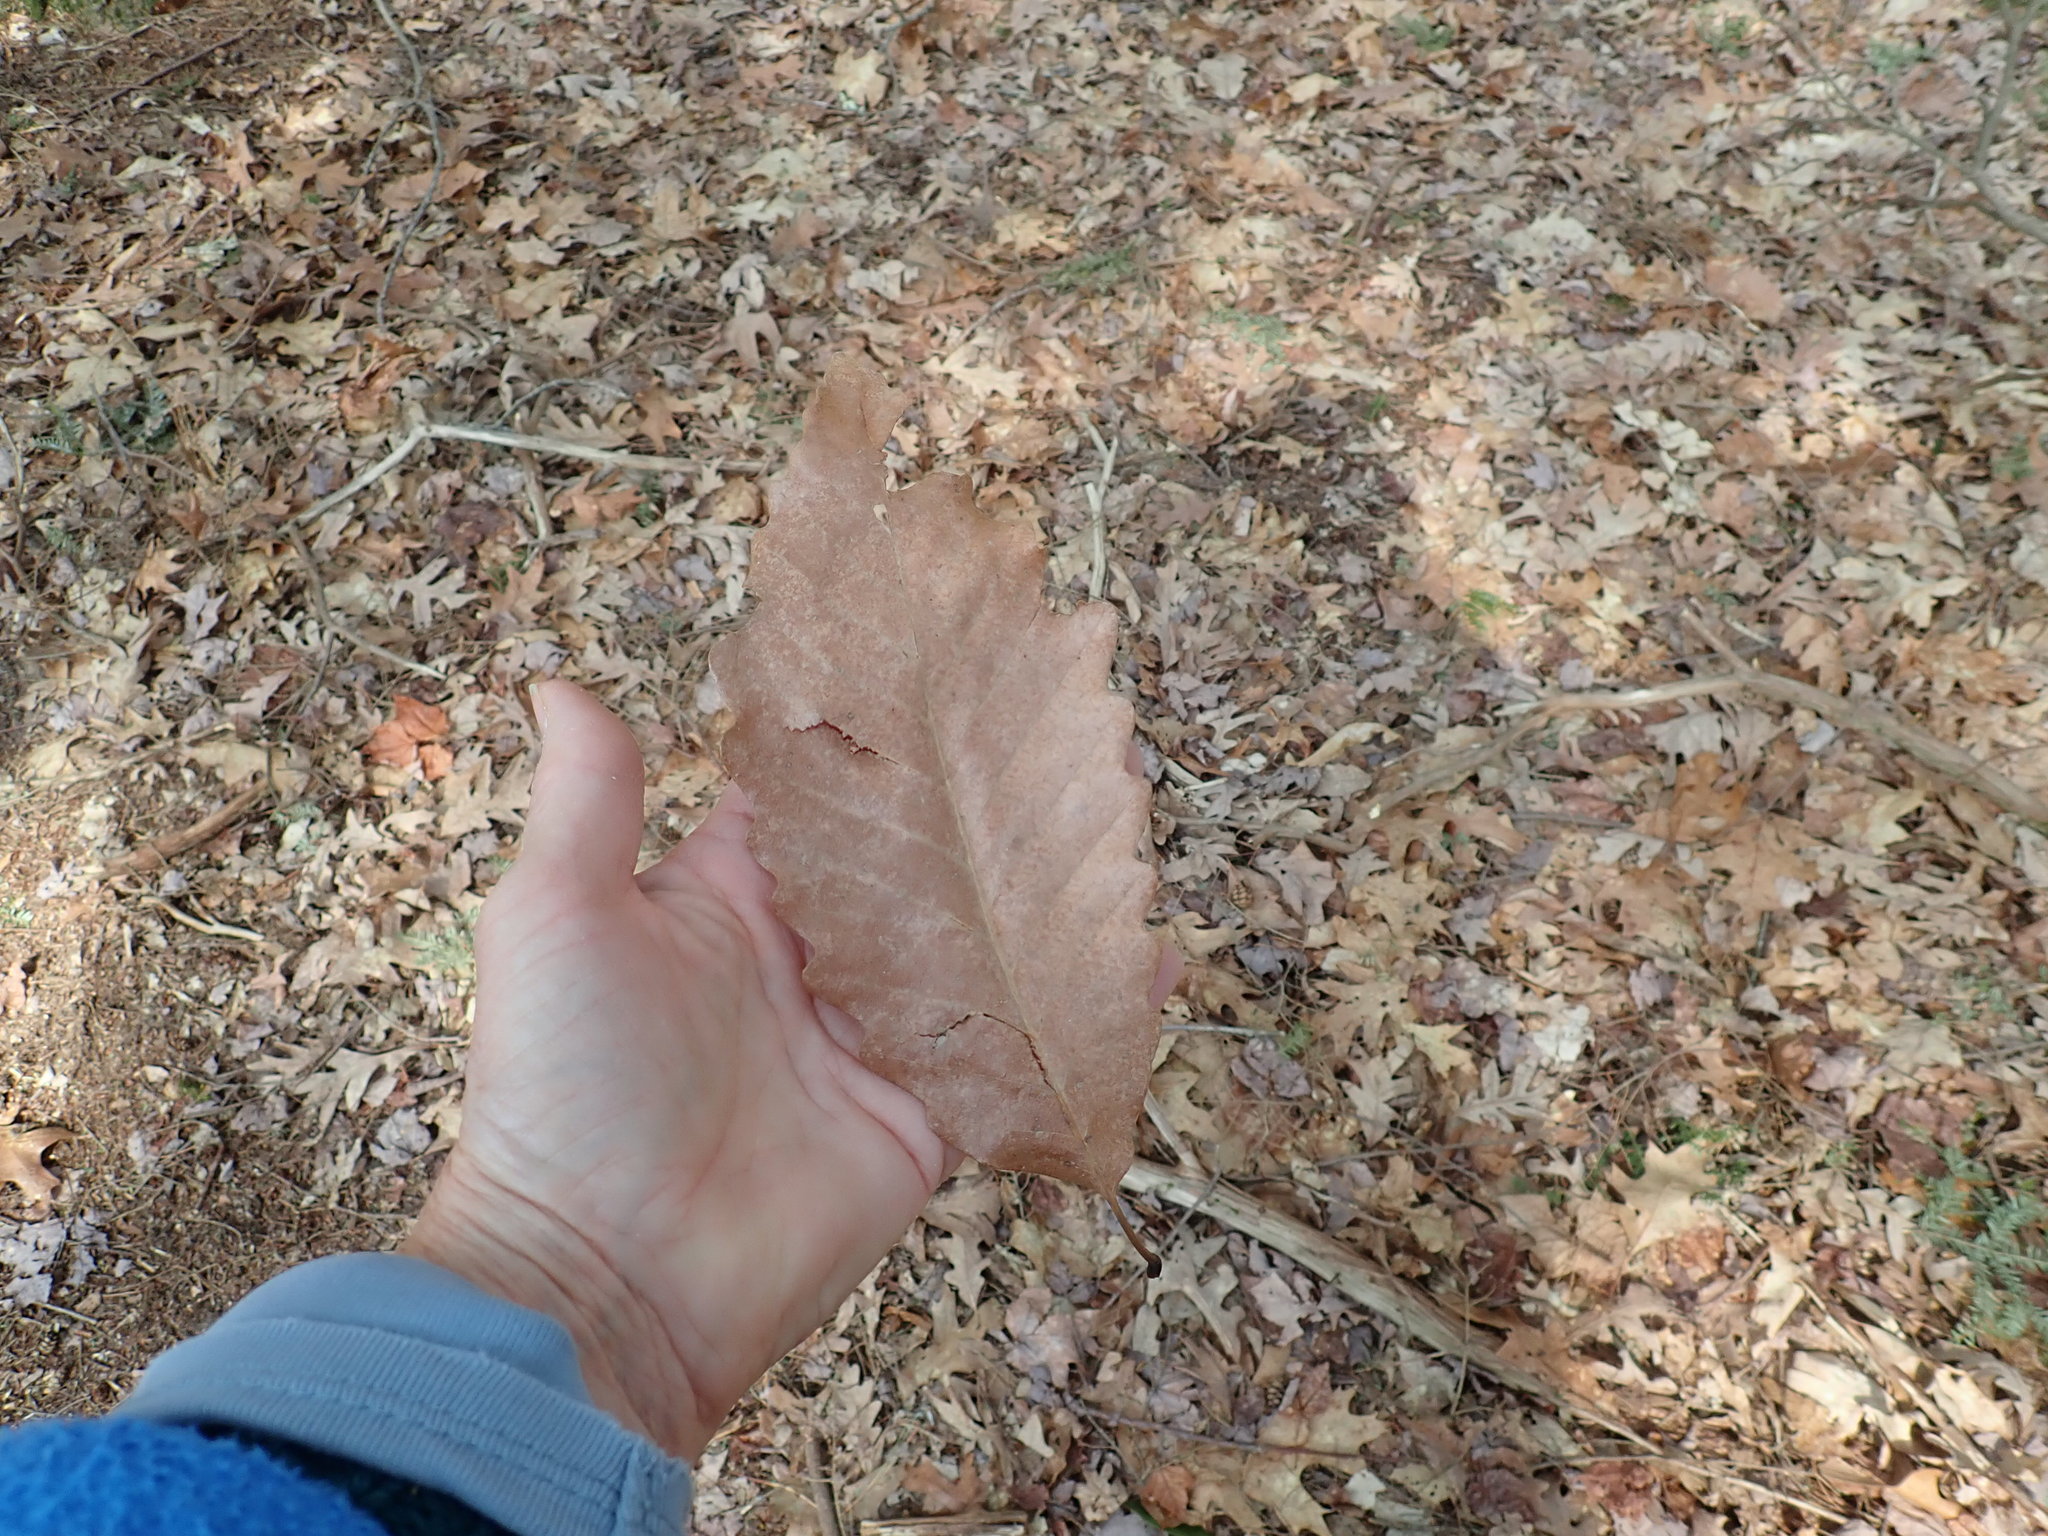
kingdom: Plantae
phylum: Tracheophyta
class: Magnoliopsida
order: Fagales
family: Fagaceae
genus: Quercus
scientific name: Quercus montana
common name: Chestnut oak
